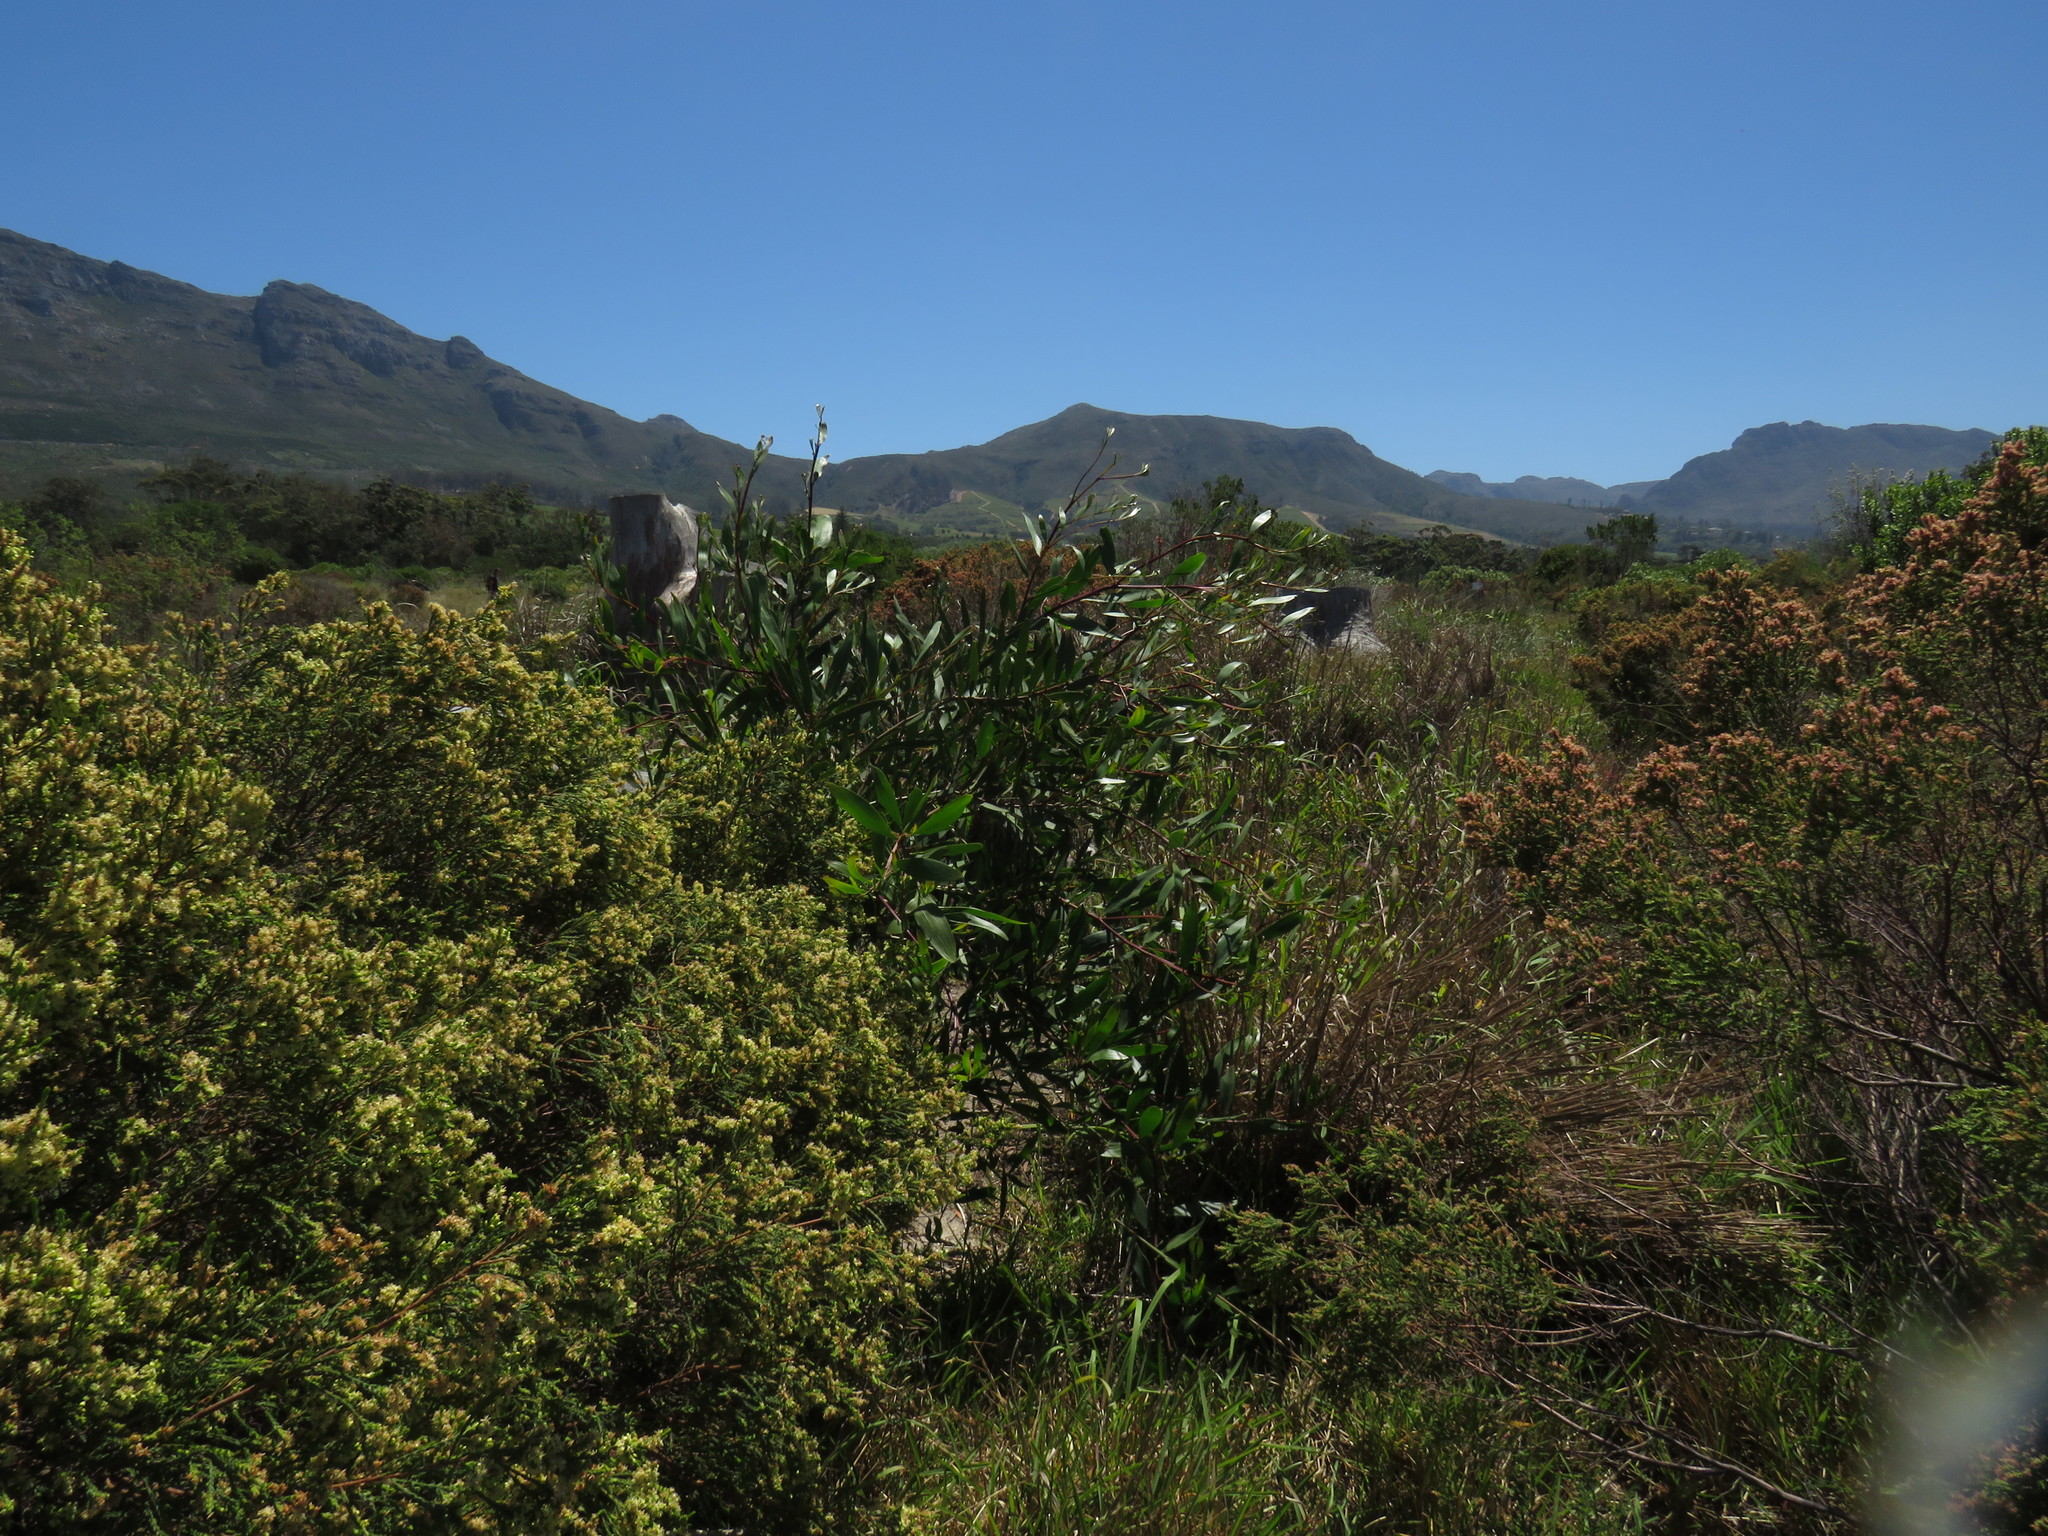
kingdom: Plantae
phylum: Tracheophyta
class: Magnoliopsida
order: Fabales
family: Fabaceae
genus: Acacia
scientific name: Acacia longifolia
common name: Sydney golden wattle
